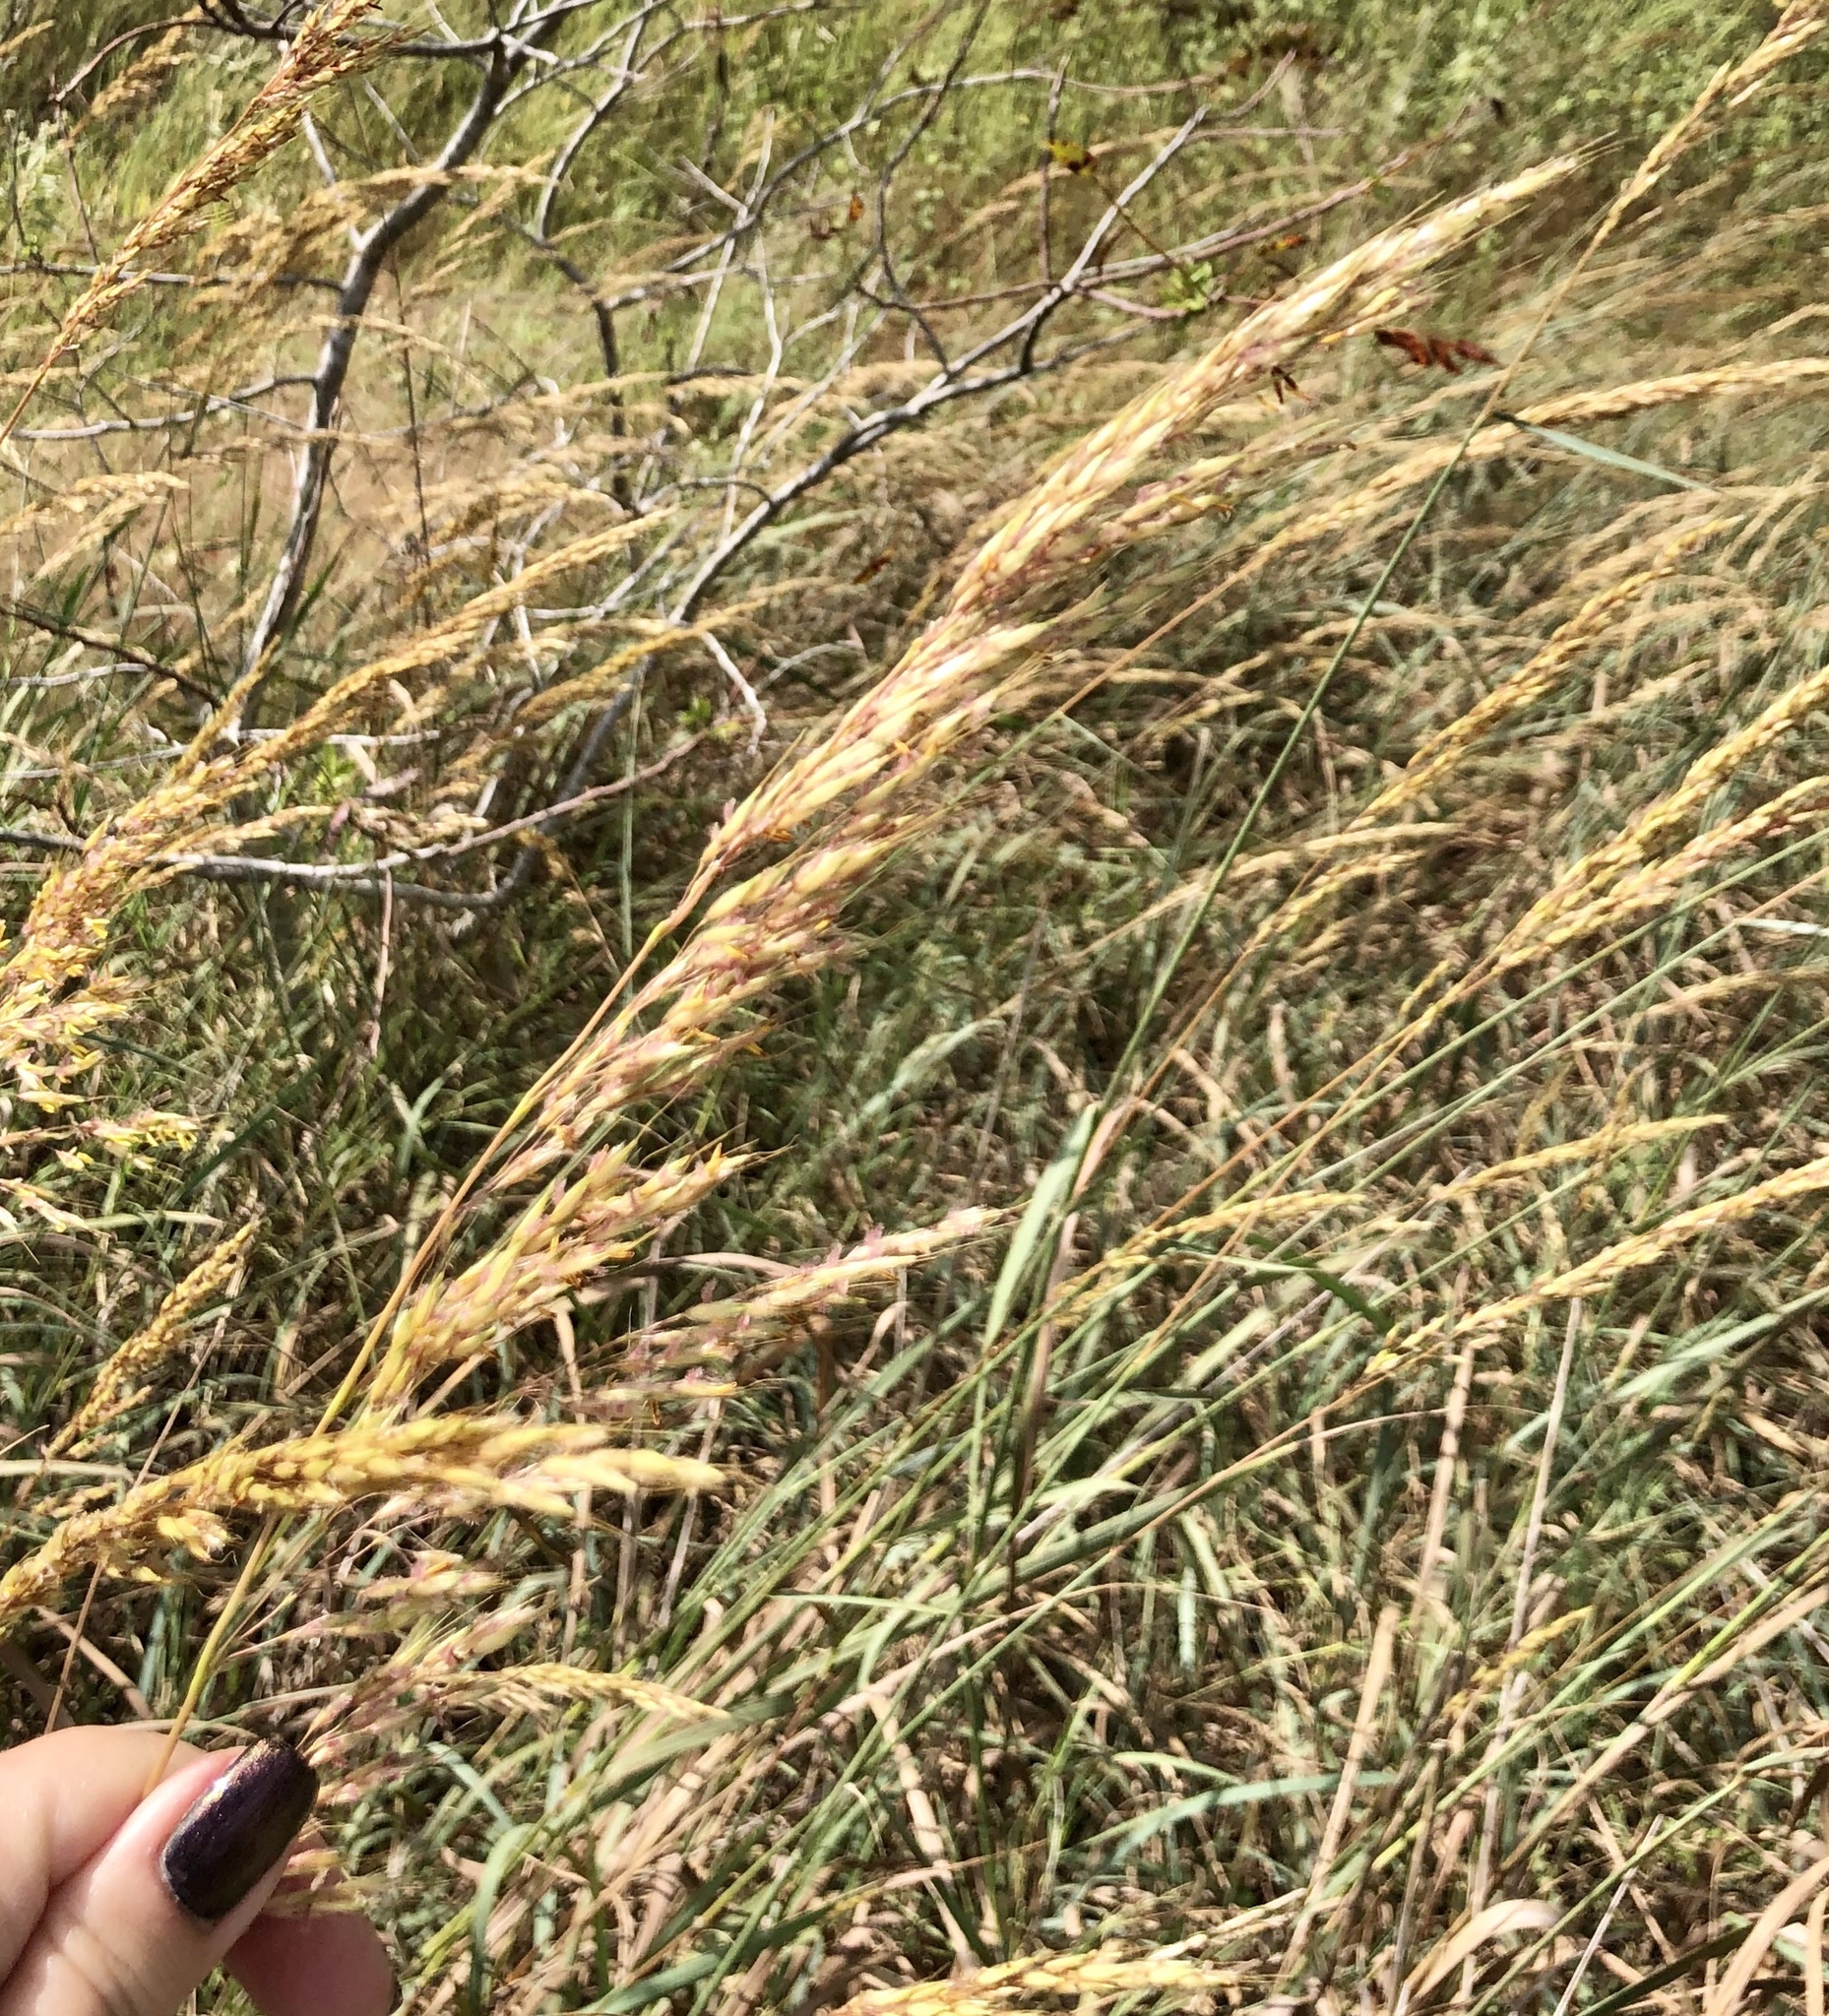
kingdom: Plantae
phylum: Tracheophyta
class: Liliopsida
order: Poales
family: Poaceae
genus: Sorghastrum
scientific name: Sorghastrum nutans
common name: Indian grass
